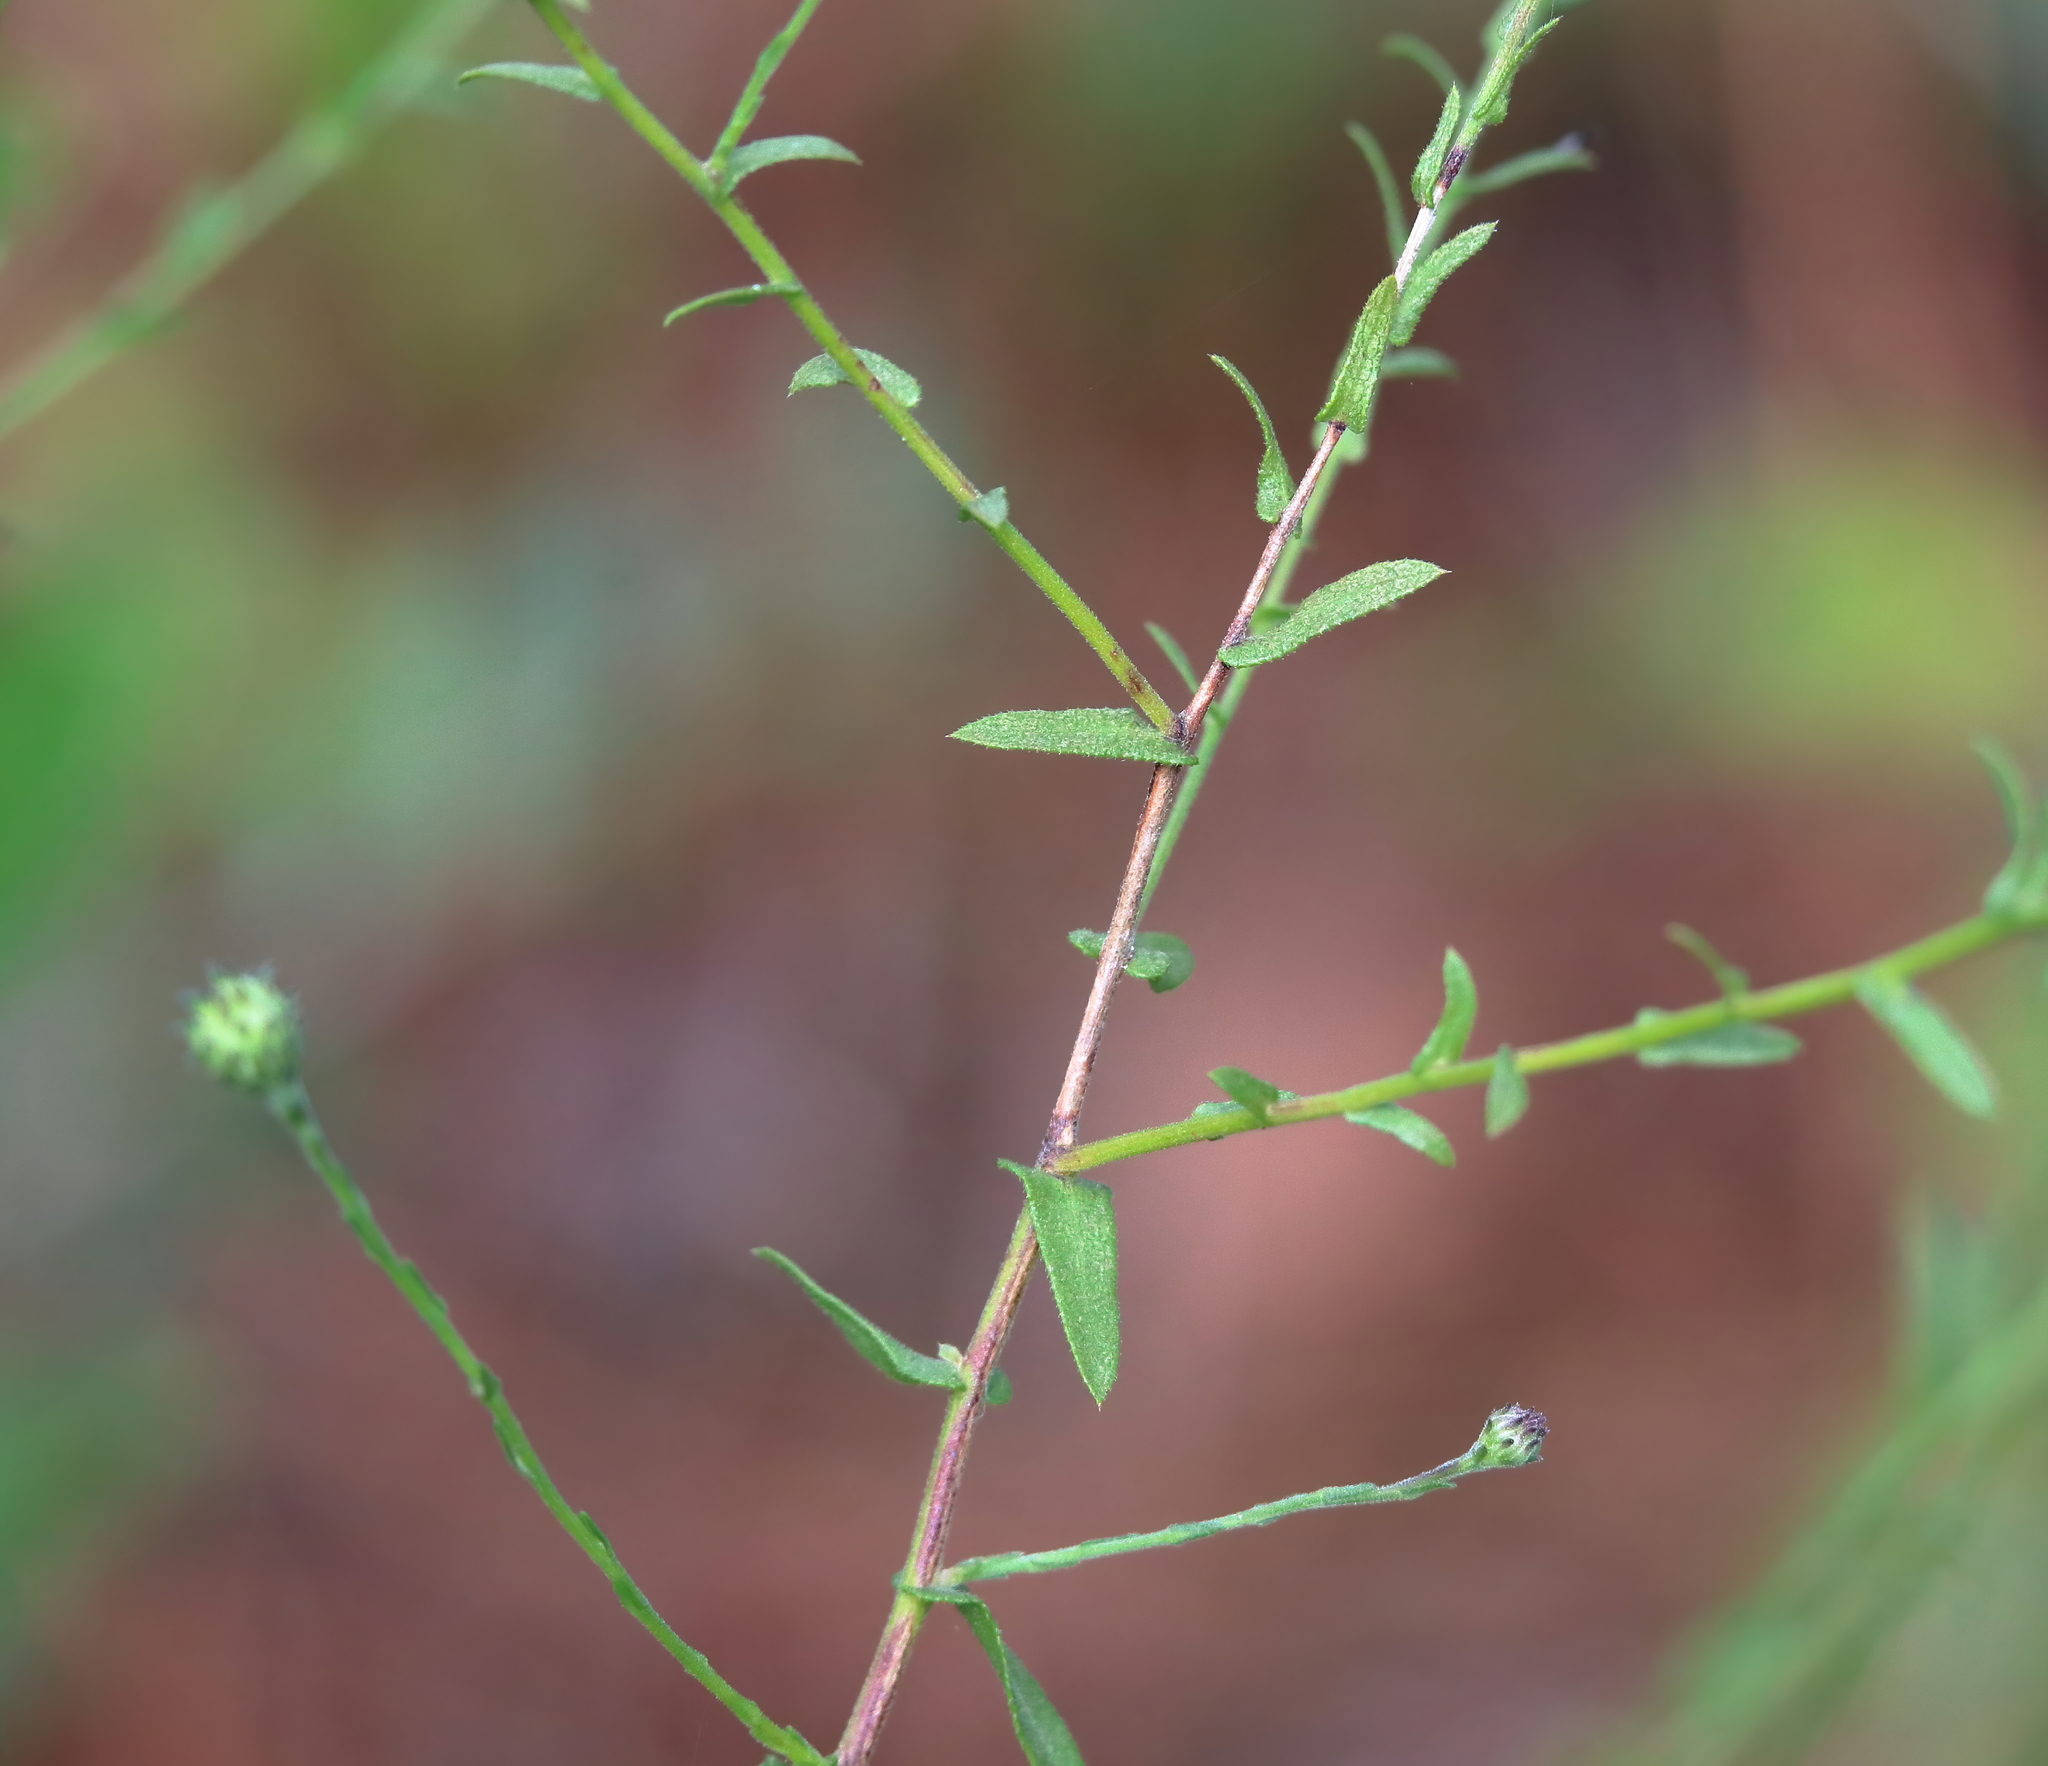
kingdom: Plantae
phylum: Tracheophyta
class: Magnoliopsida
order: Asterales
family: Asteraceae
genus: Symphyotrichum
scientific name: Symphyotrichum patens
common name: Late purple aster
